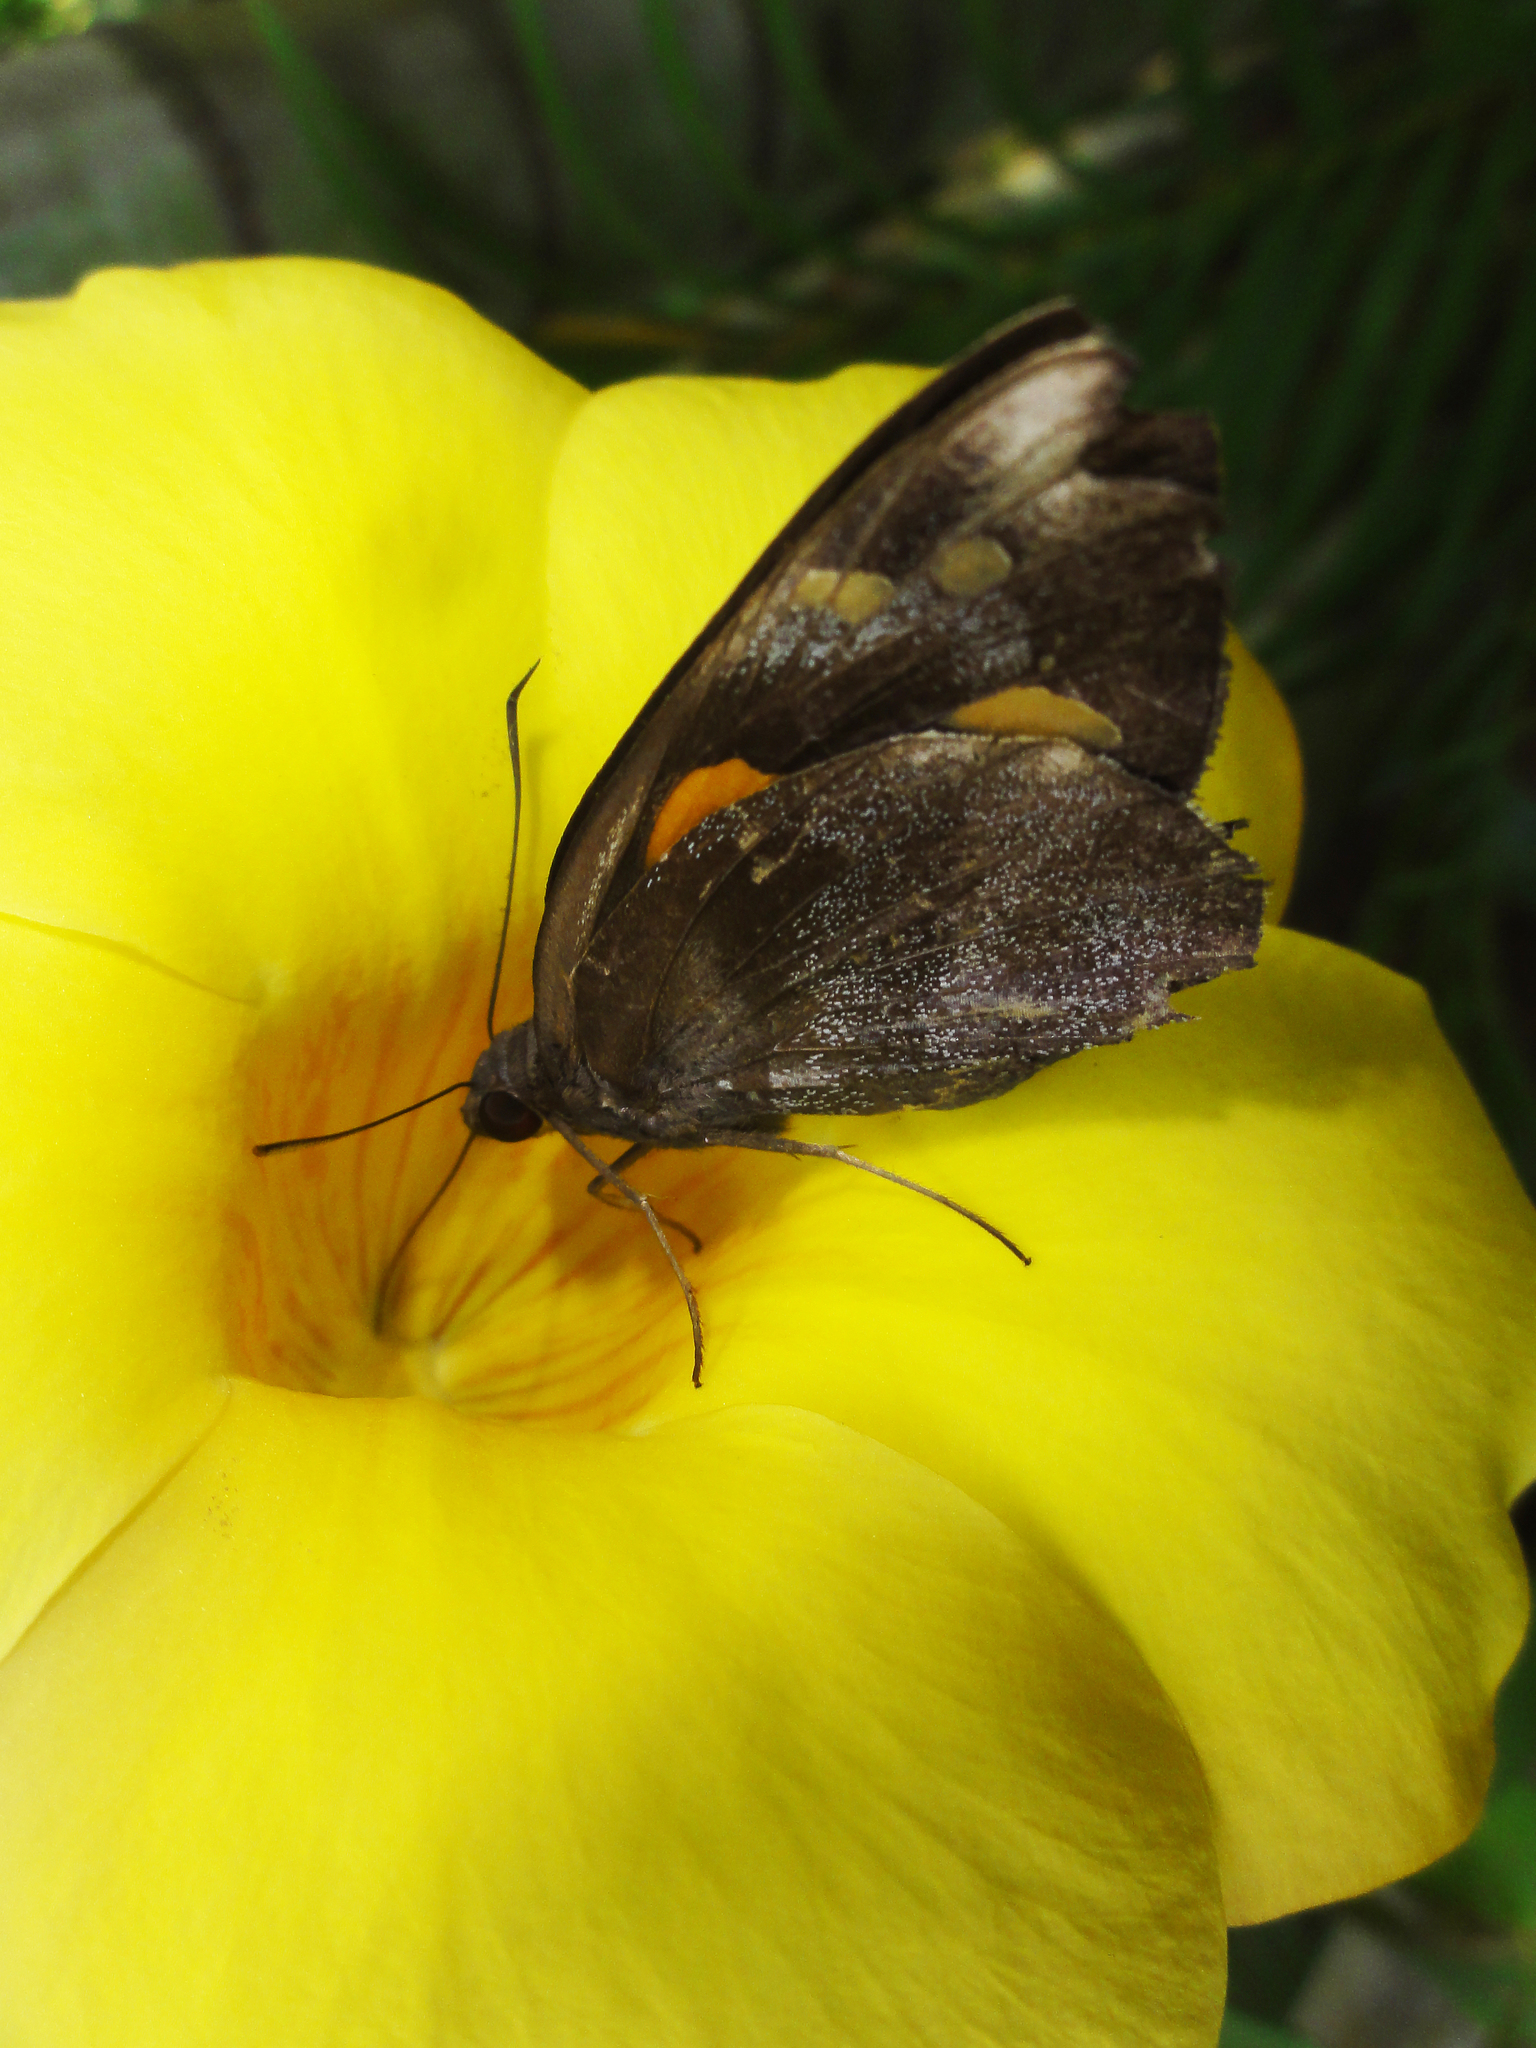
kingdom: Animalia
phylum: Arthropoda
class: Insecta
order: Lepidoptera
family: Hesperiidae
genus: Gangara
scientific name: Gangara thyrsis
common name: Giant redeye
